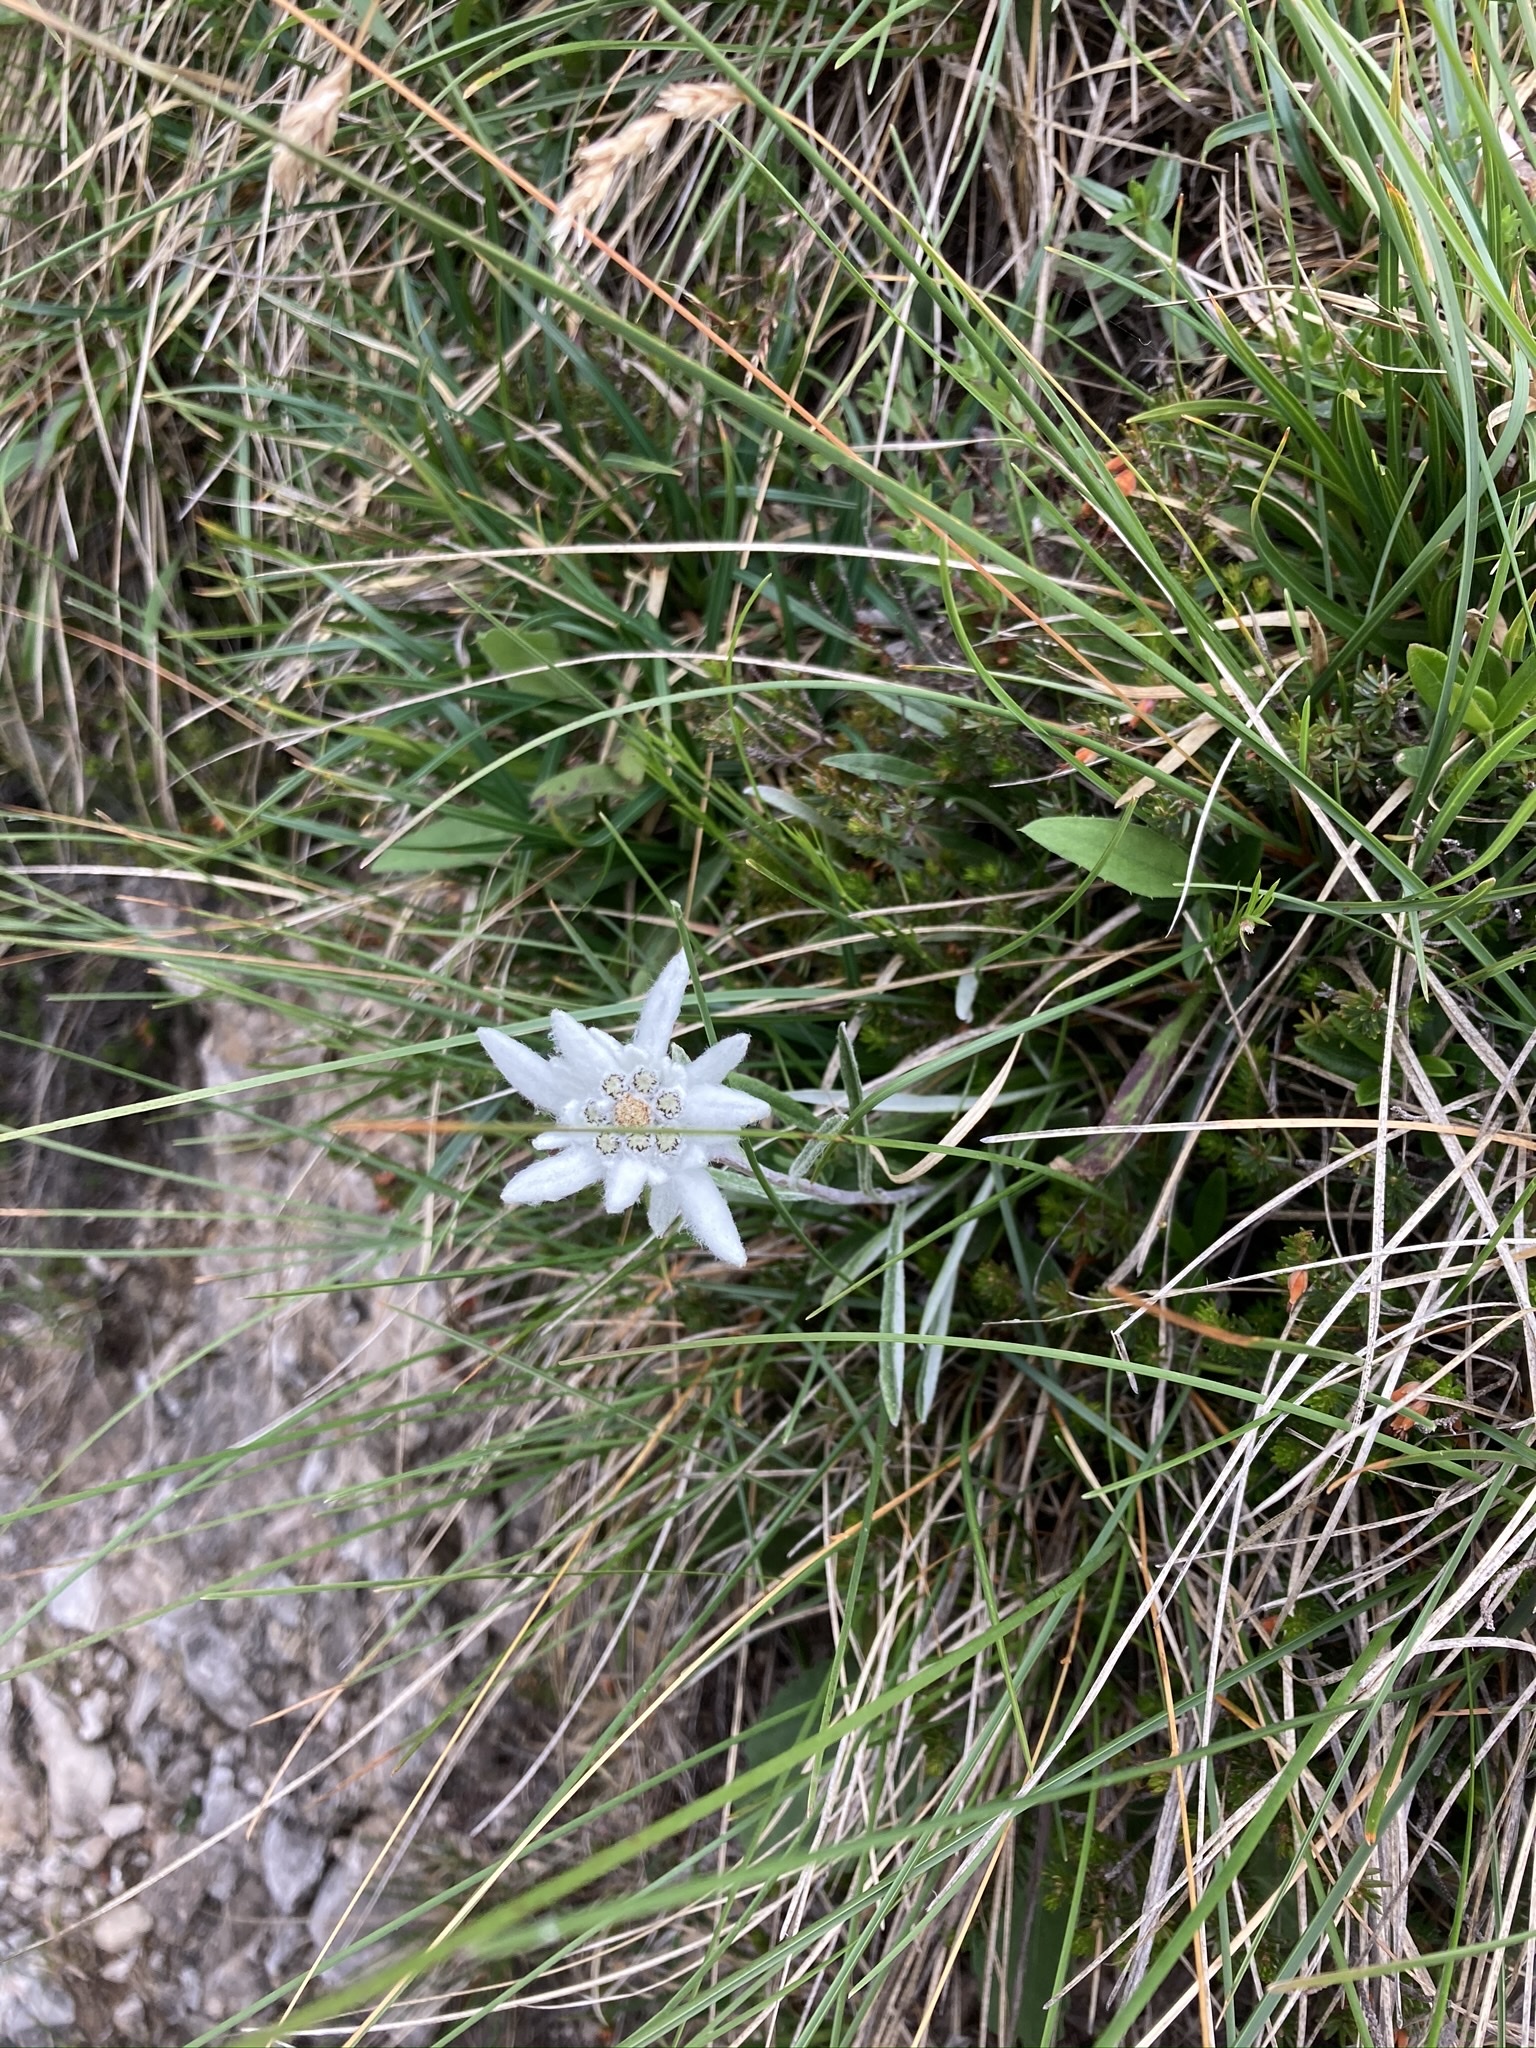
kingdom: Plantae
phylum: Tracheophyta
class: Magnoliopsida
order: Asterales
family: Asteraceae
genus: Leontopodium
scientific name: Leontopodium nivale
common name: Edelweiss
